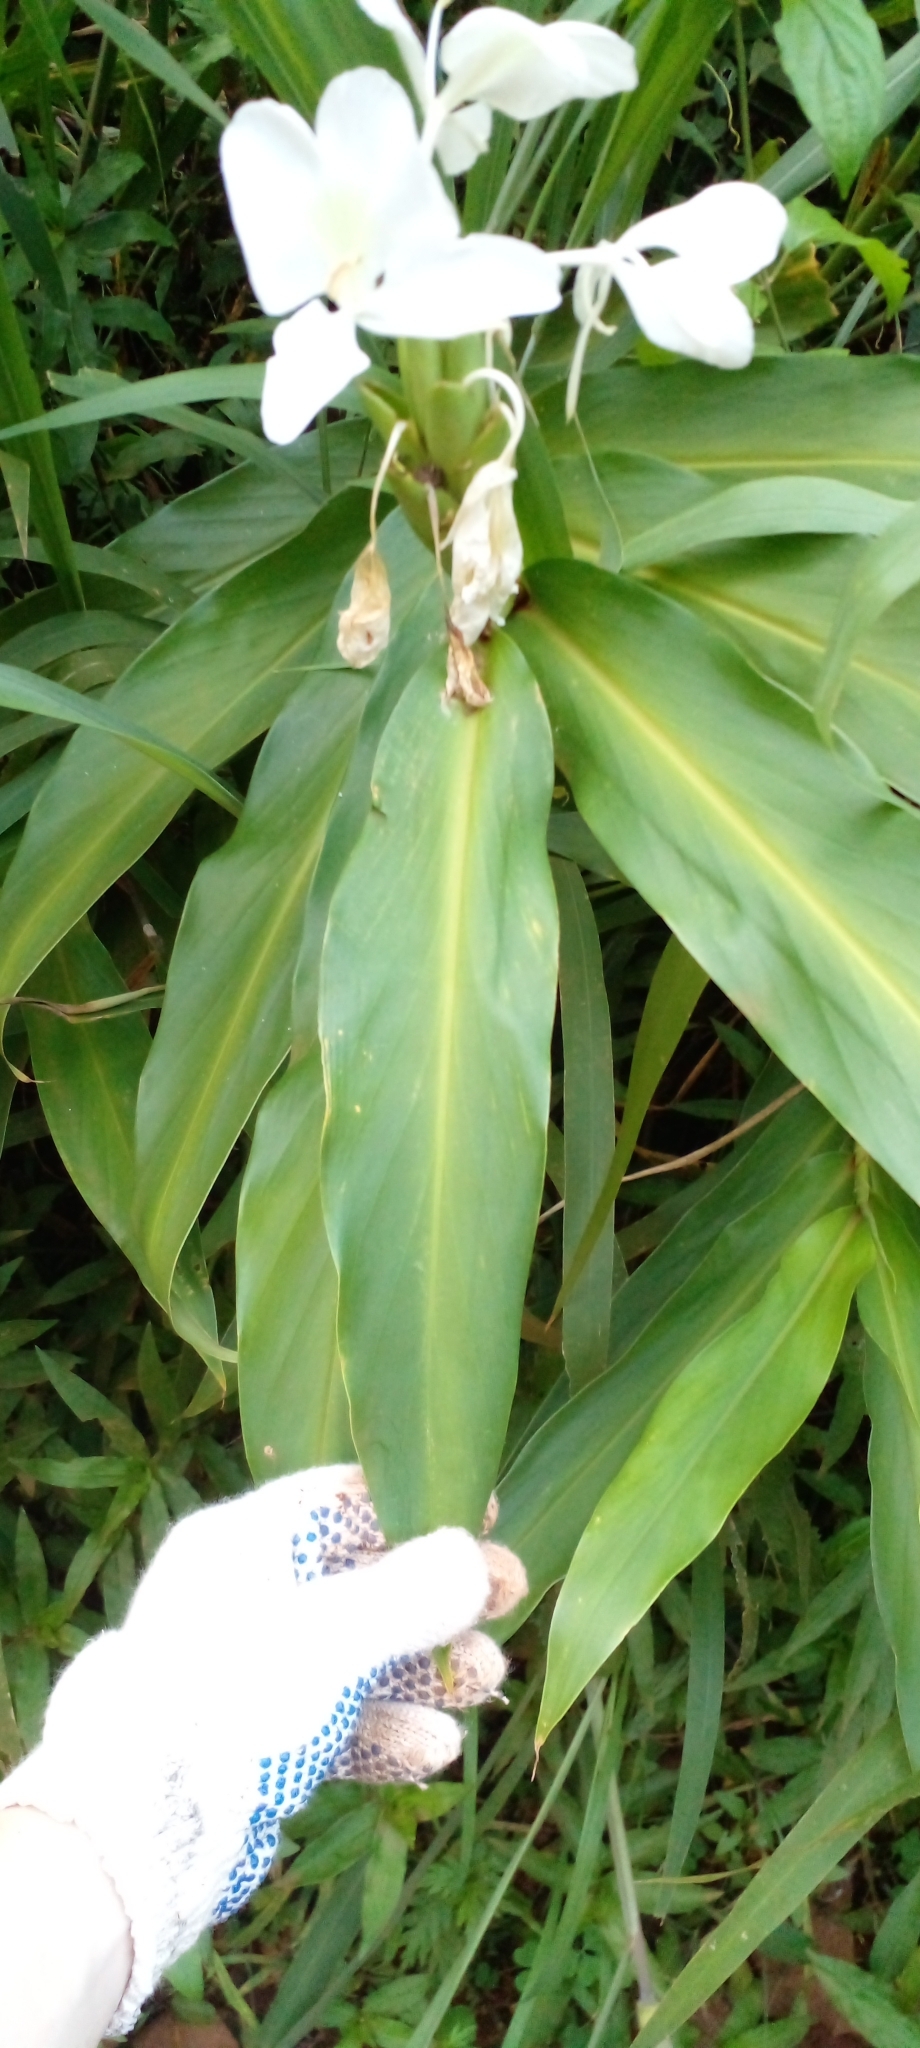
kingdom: Plantae
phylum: Tracheophyta
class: Liliopsida
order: Zingiberales
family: Zingiberaceae
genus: Hedychium
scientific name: Hedychium coronarium
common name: White garland-lily
